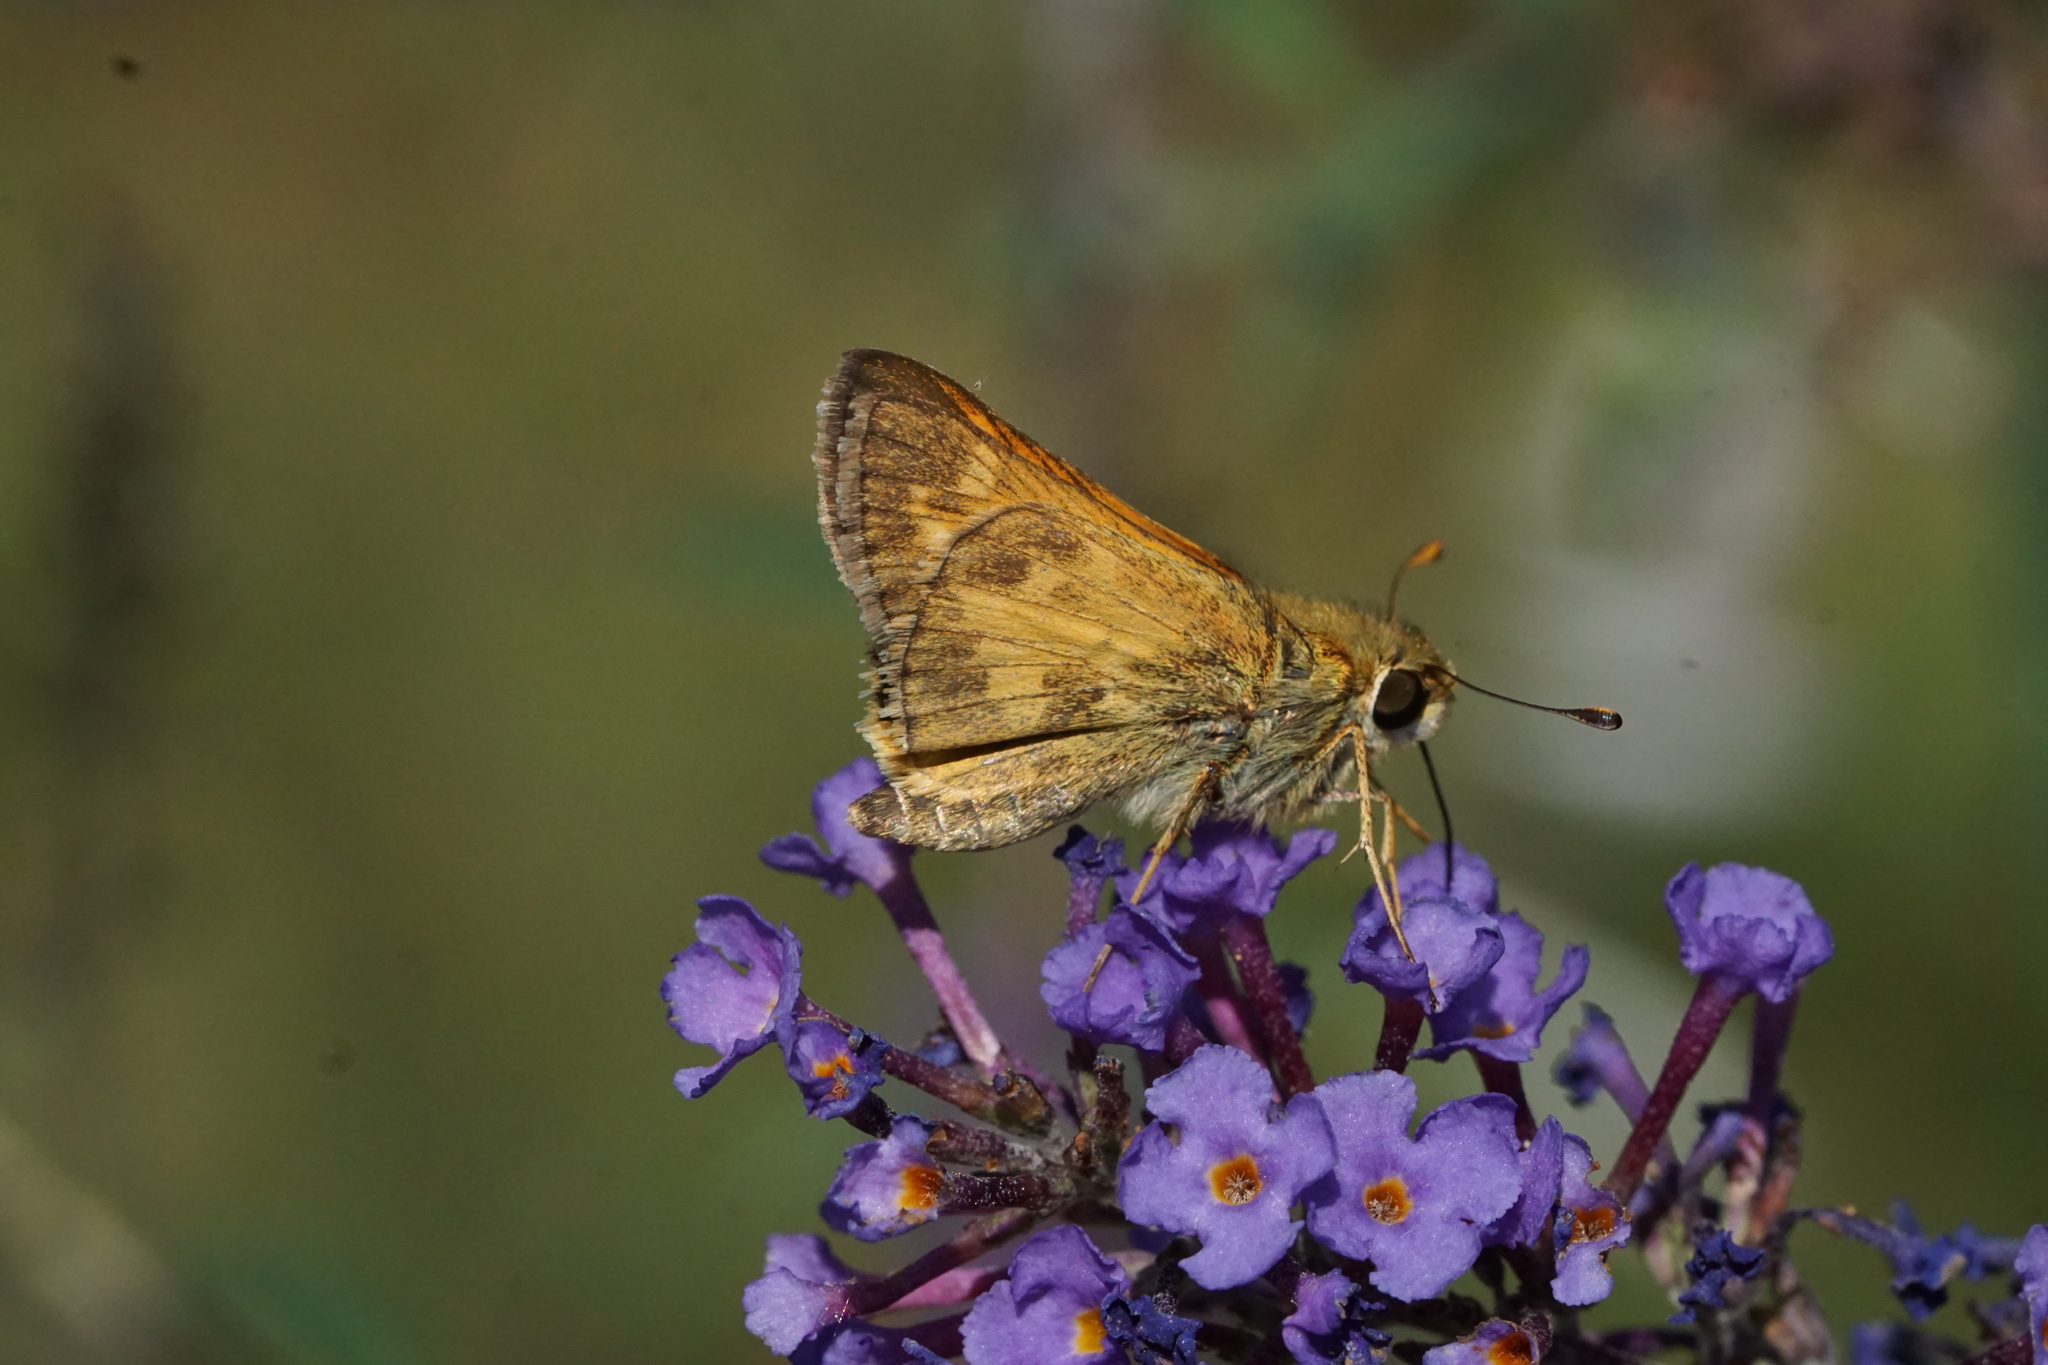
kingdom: Animalia
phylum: Arthropoda
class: Insecta
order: Lepidoptera
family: Hesperiidae
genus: Atalopedes
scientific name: Atalopedes
